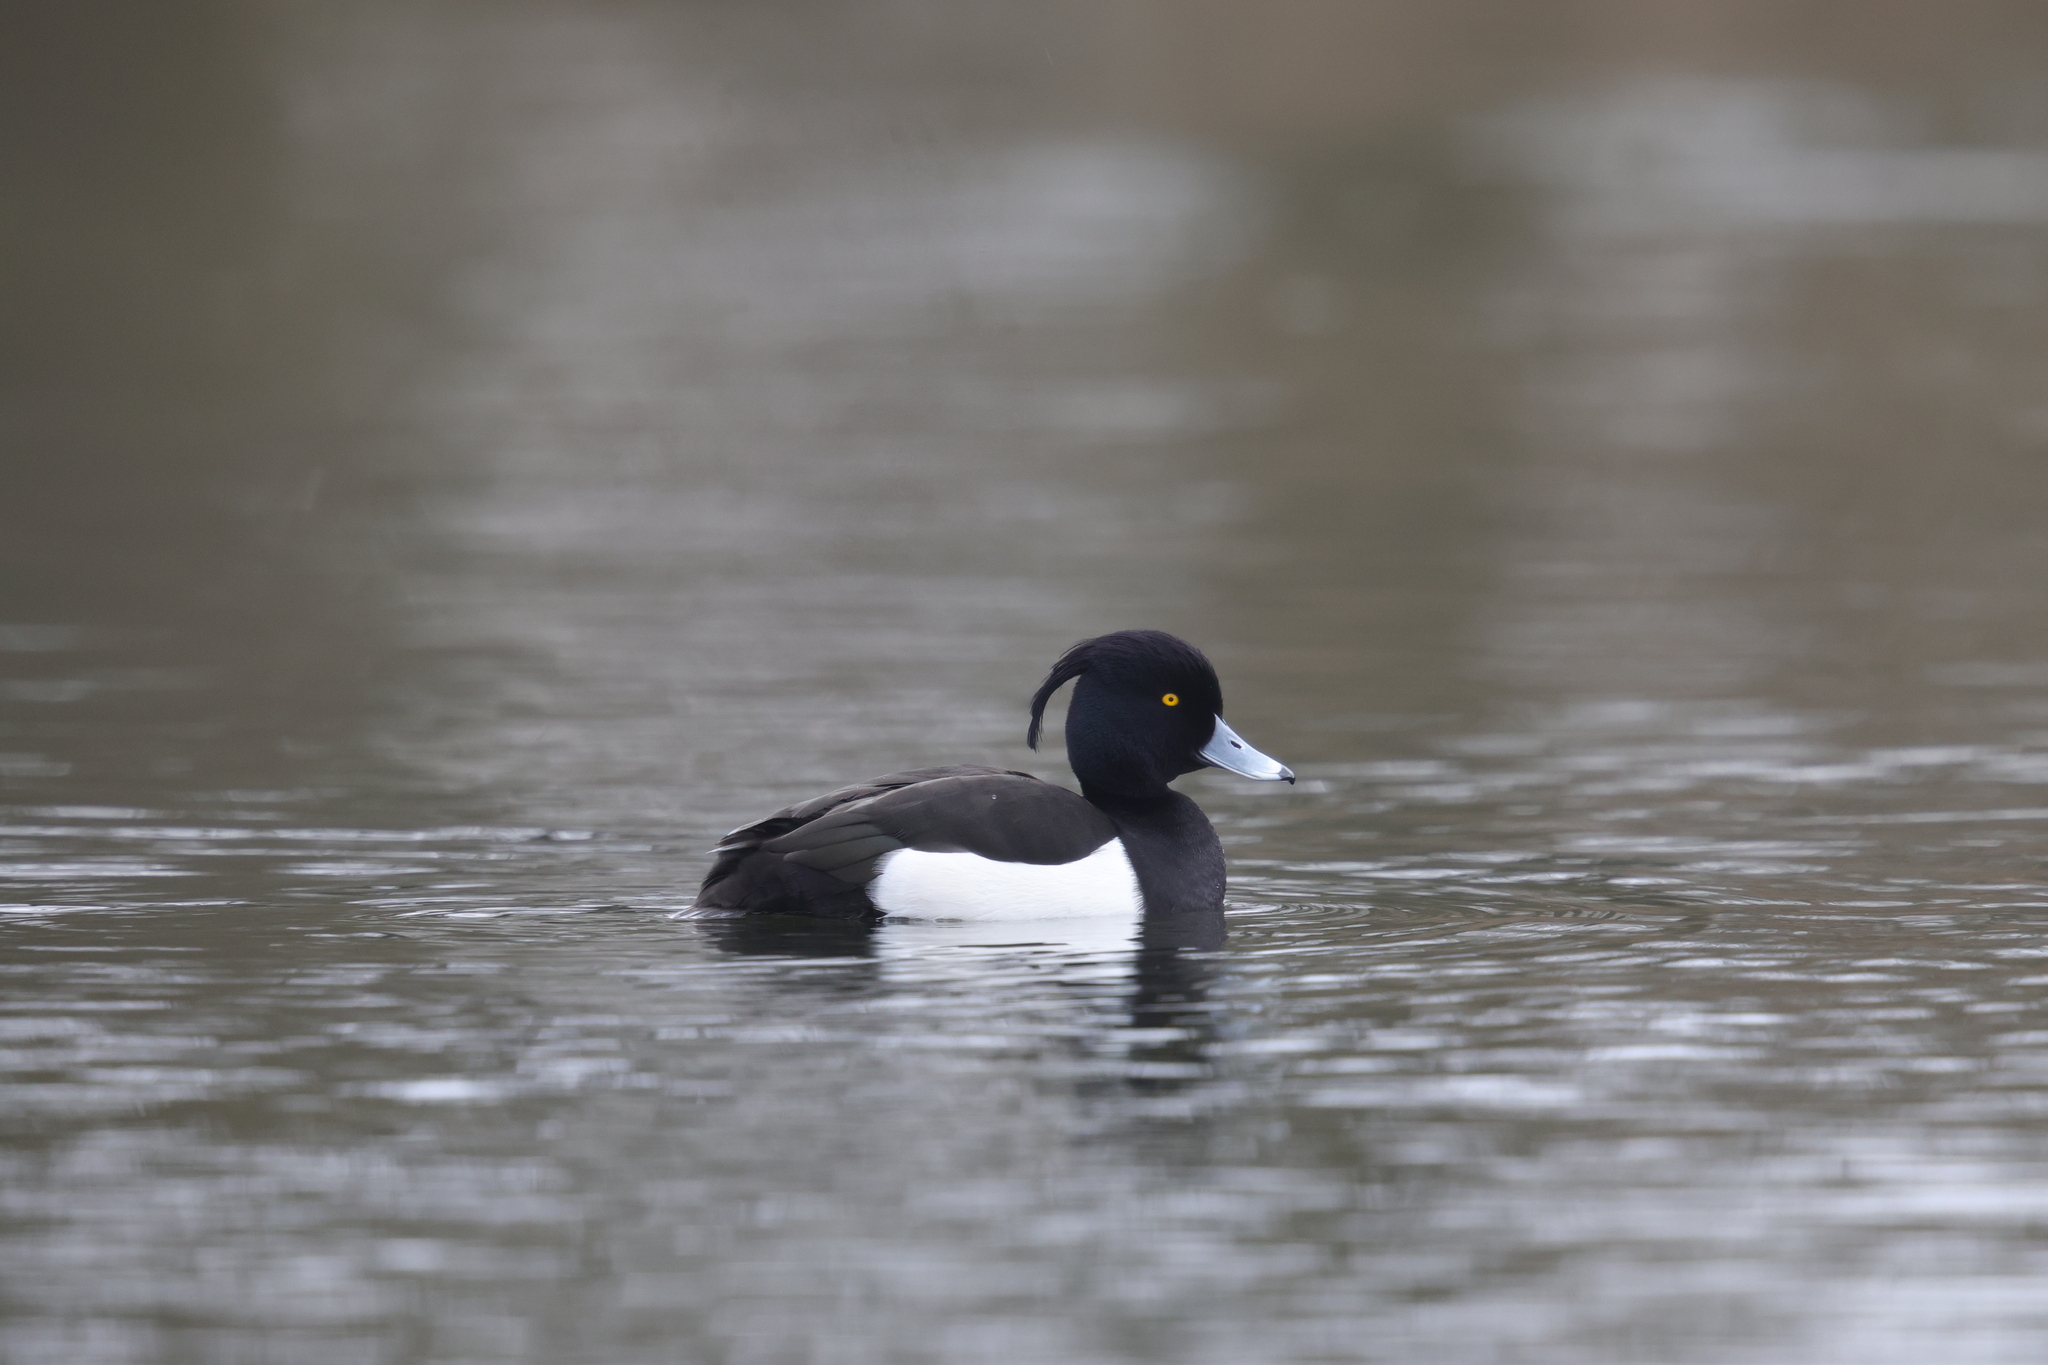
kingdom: Animalia
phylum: Chordata
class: Aves
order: Anseriformes
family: Anatidae
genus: Aythya
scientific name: Aythya fuligula
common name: Tufted duck
